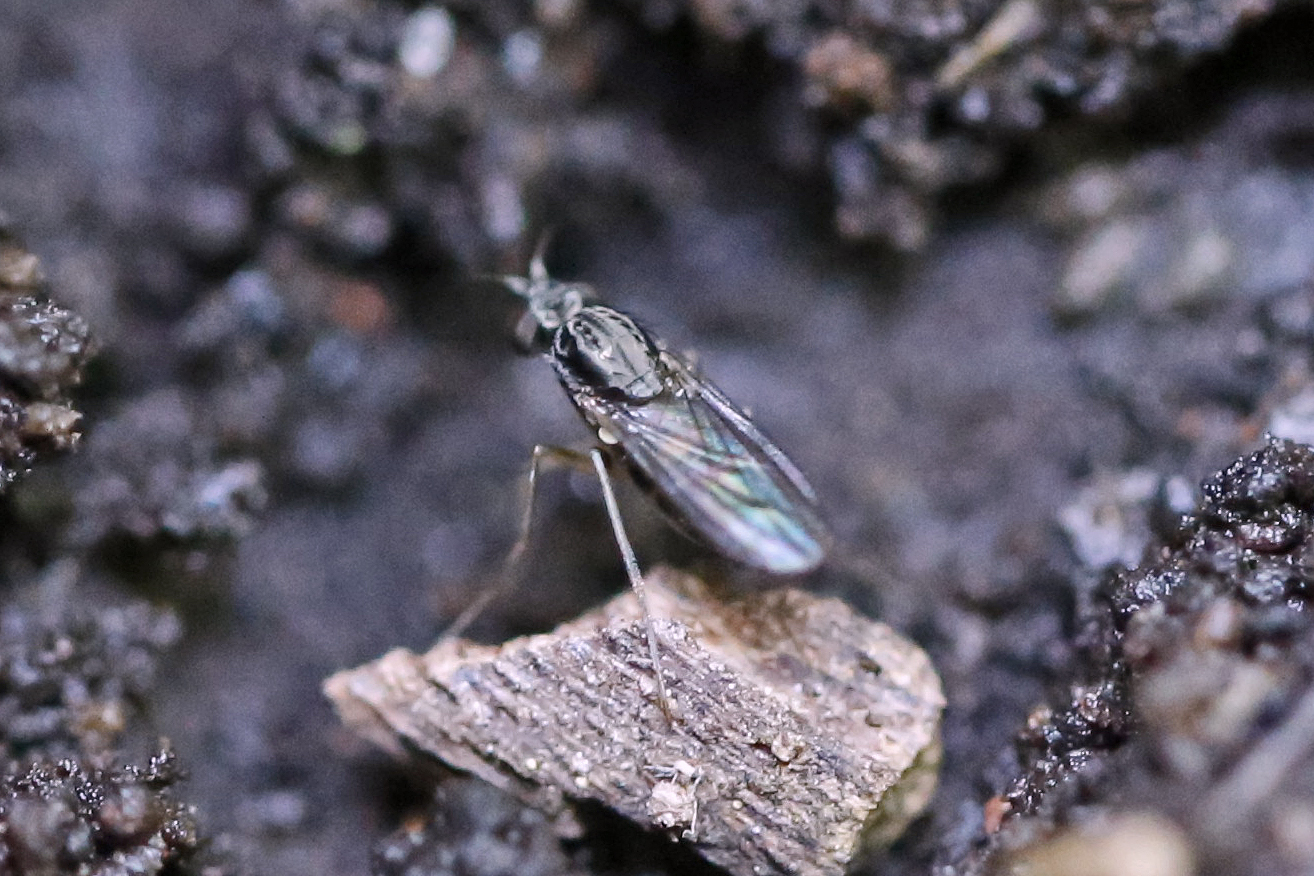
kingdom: Animalia
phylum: Arthropoda
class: Insecta
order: Diptera
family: Dolichopodidae
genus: Systenus
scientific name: Systenus albimanus
